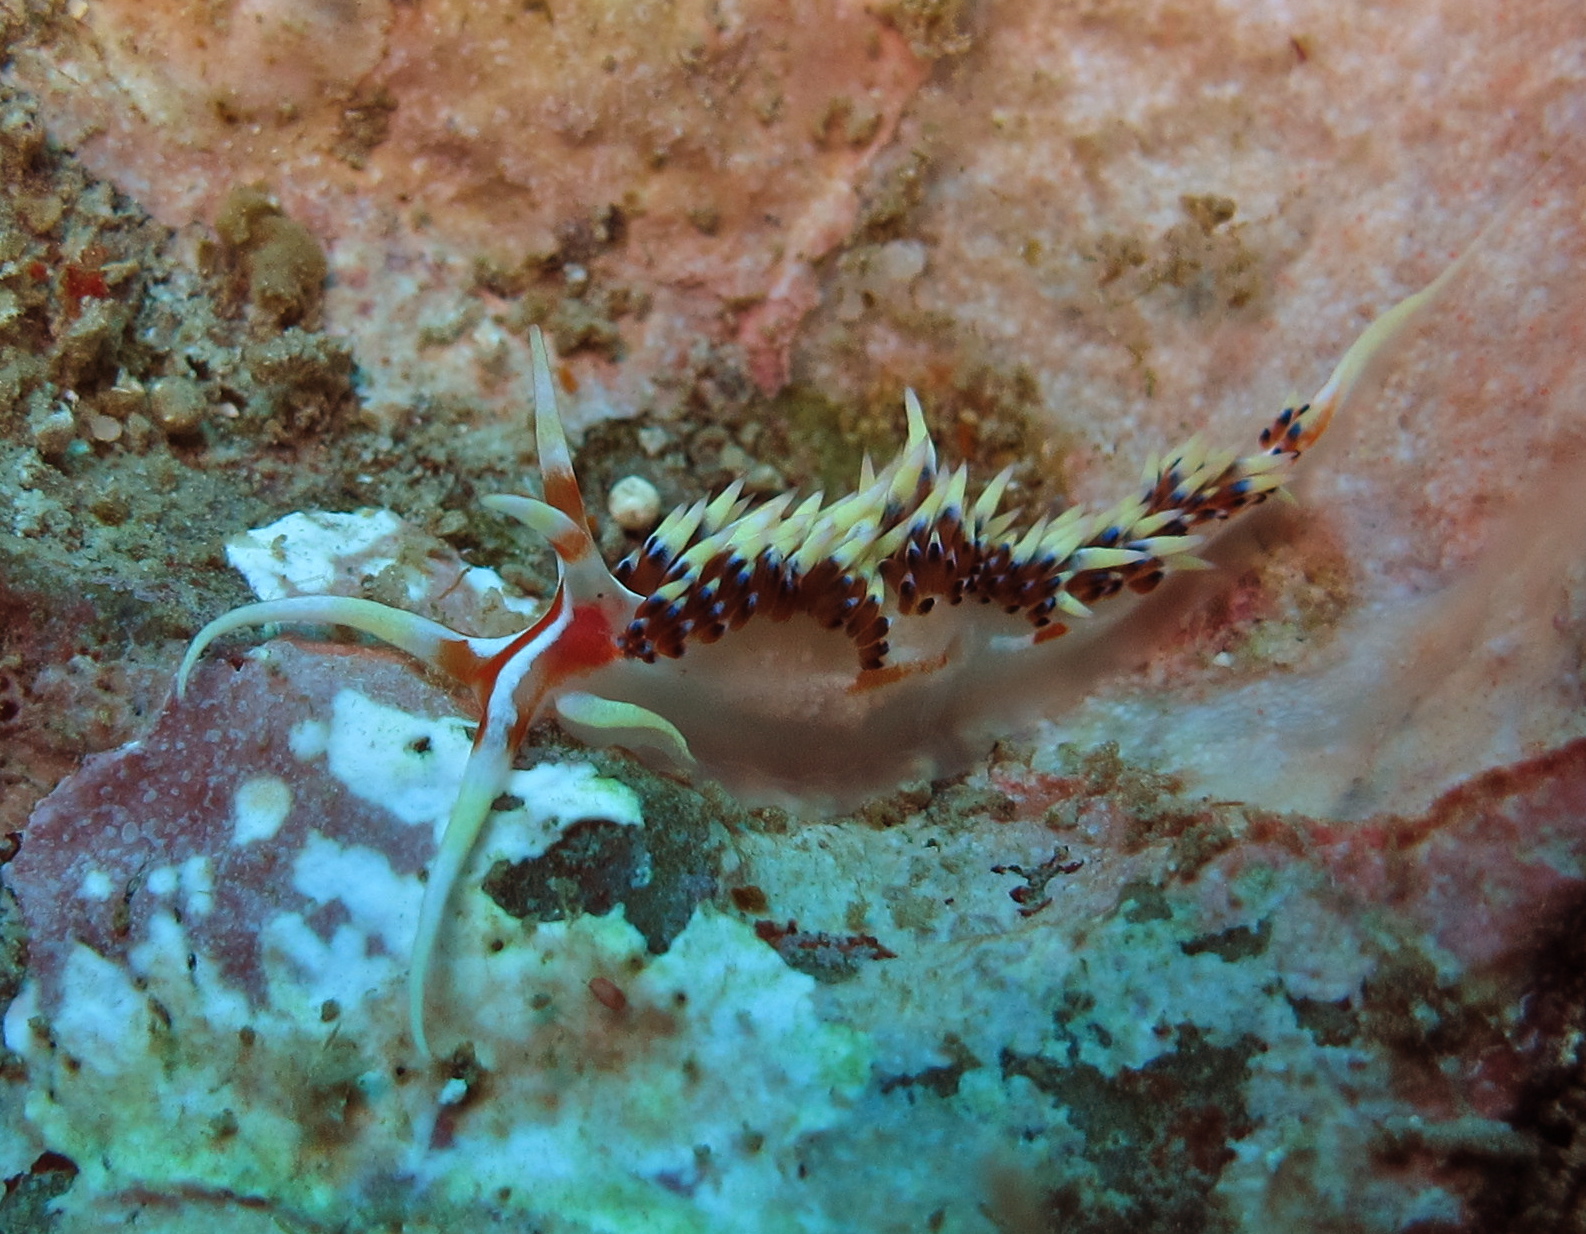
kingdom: Animalia
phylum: Mollusca
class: Gastropoda
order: Nudibranchia
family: Facelinidae
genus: Caloria
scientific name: Caloria indica
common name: Sea slug
